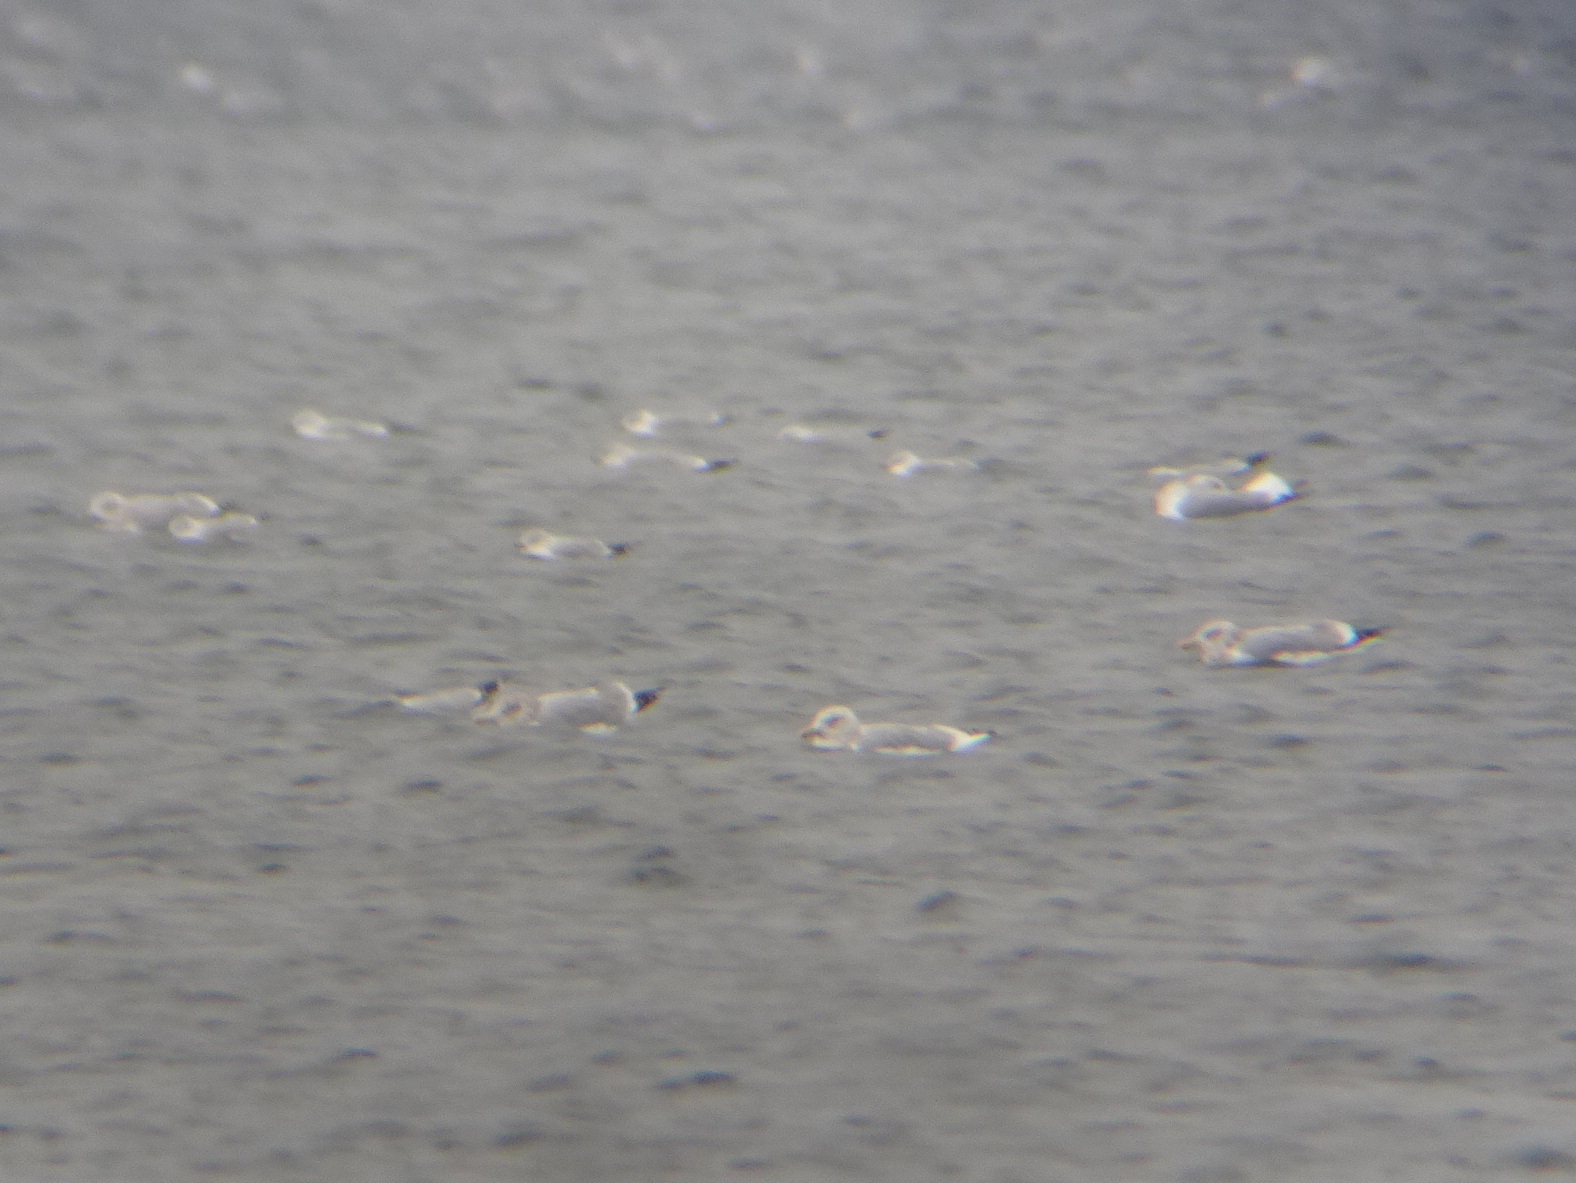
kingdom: Animalia
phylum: Chordata
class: Aves
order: Charadriiformes
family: Laridae
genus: Larus
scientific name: Larus argentatus
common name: Herring gull
